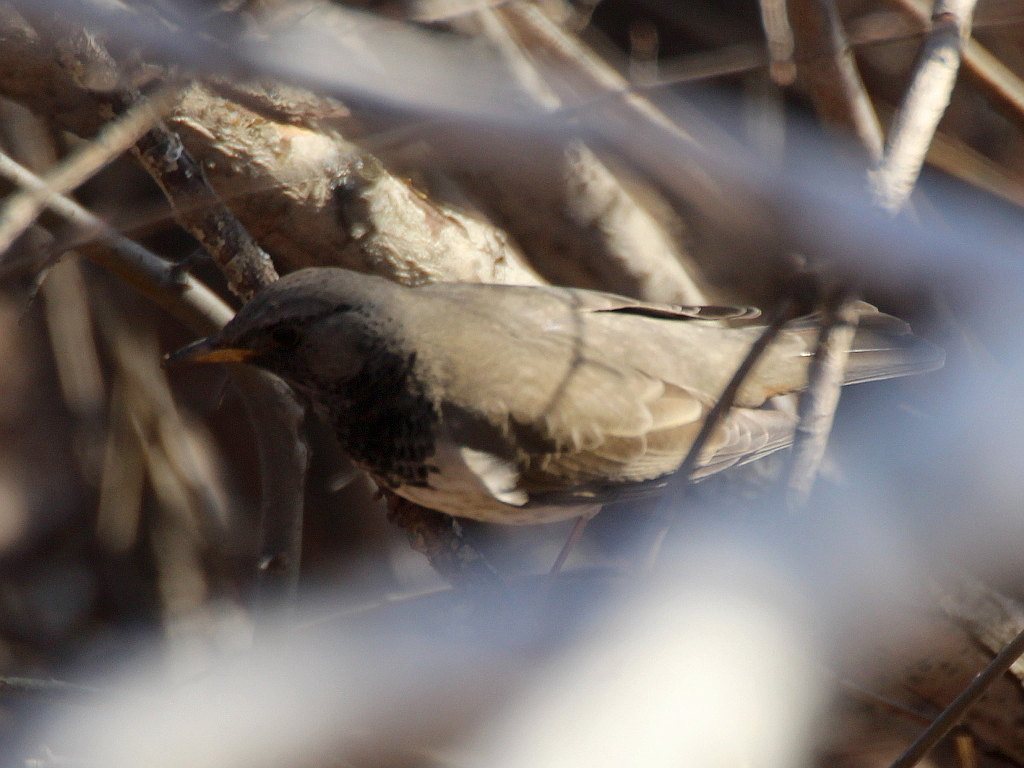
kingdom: Animalia
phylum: Chordata
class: Aves
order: Passeriformes
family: Turdidae
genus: Turdus
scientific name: Turdus atrogularis
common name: Black-throated thrush
